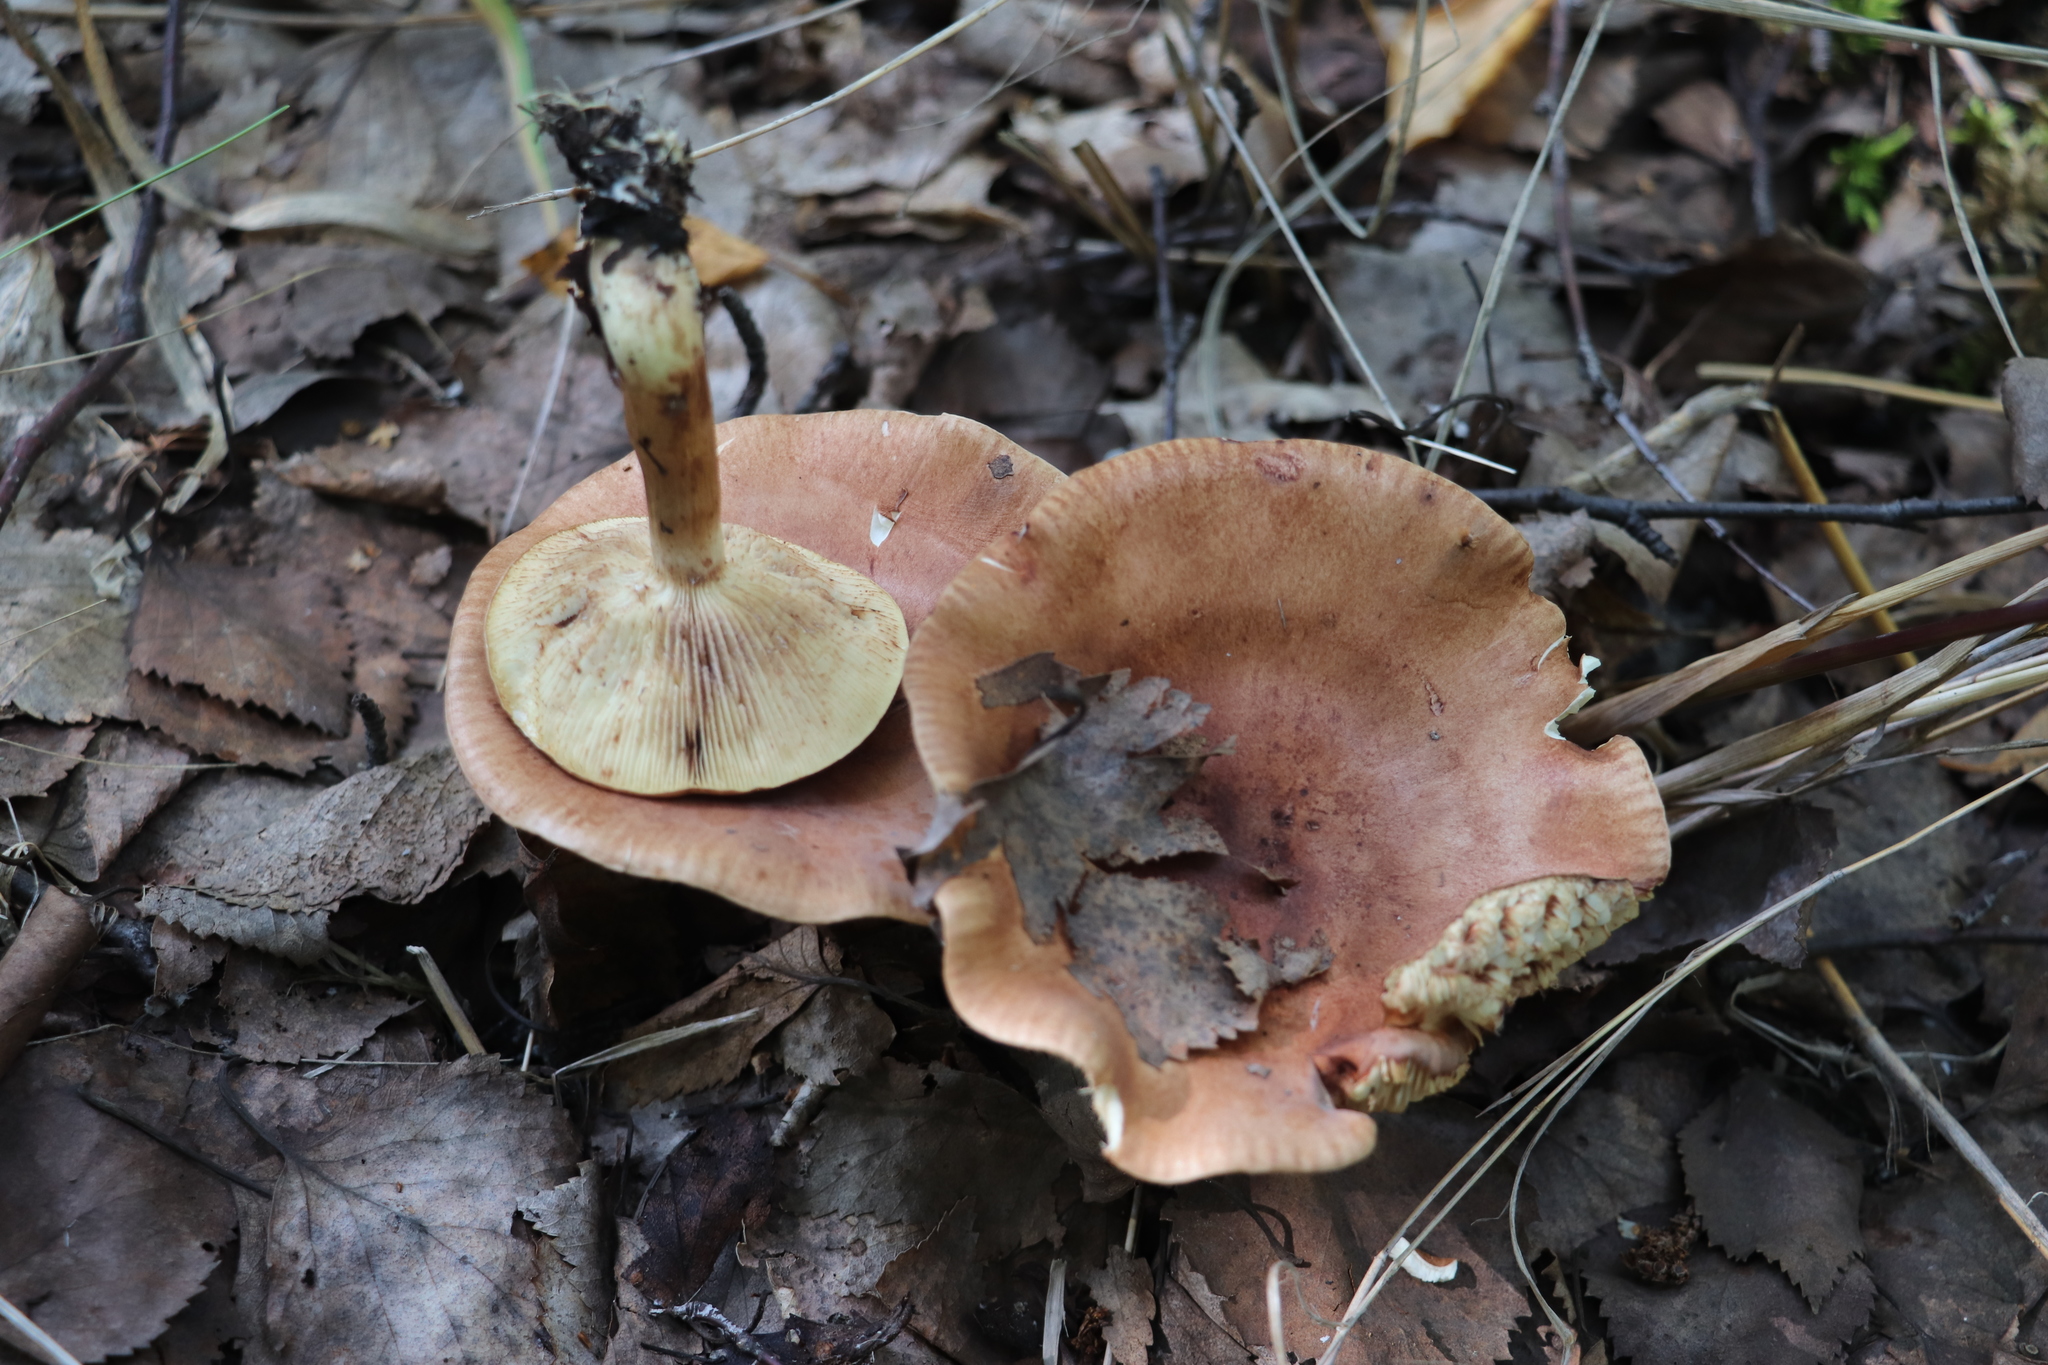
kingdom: Fungi
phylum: Basidiomycota
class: Agaricomycetes
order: Agaricales
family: Tricholomataceae
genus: Tricholoma
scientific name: Tricholoma fulvum
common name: Birch knight
